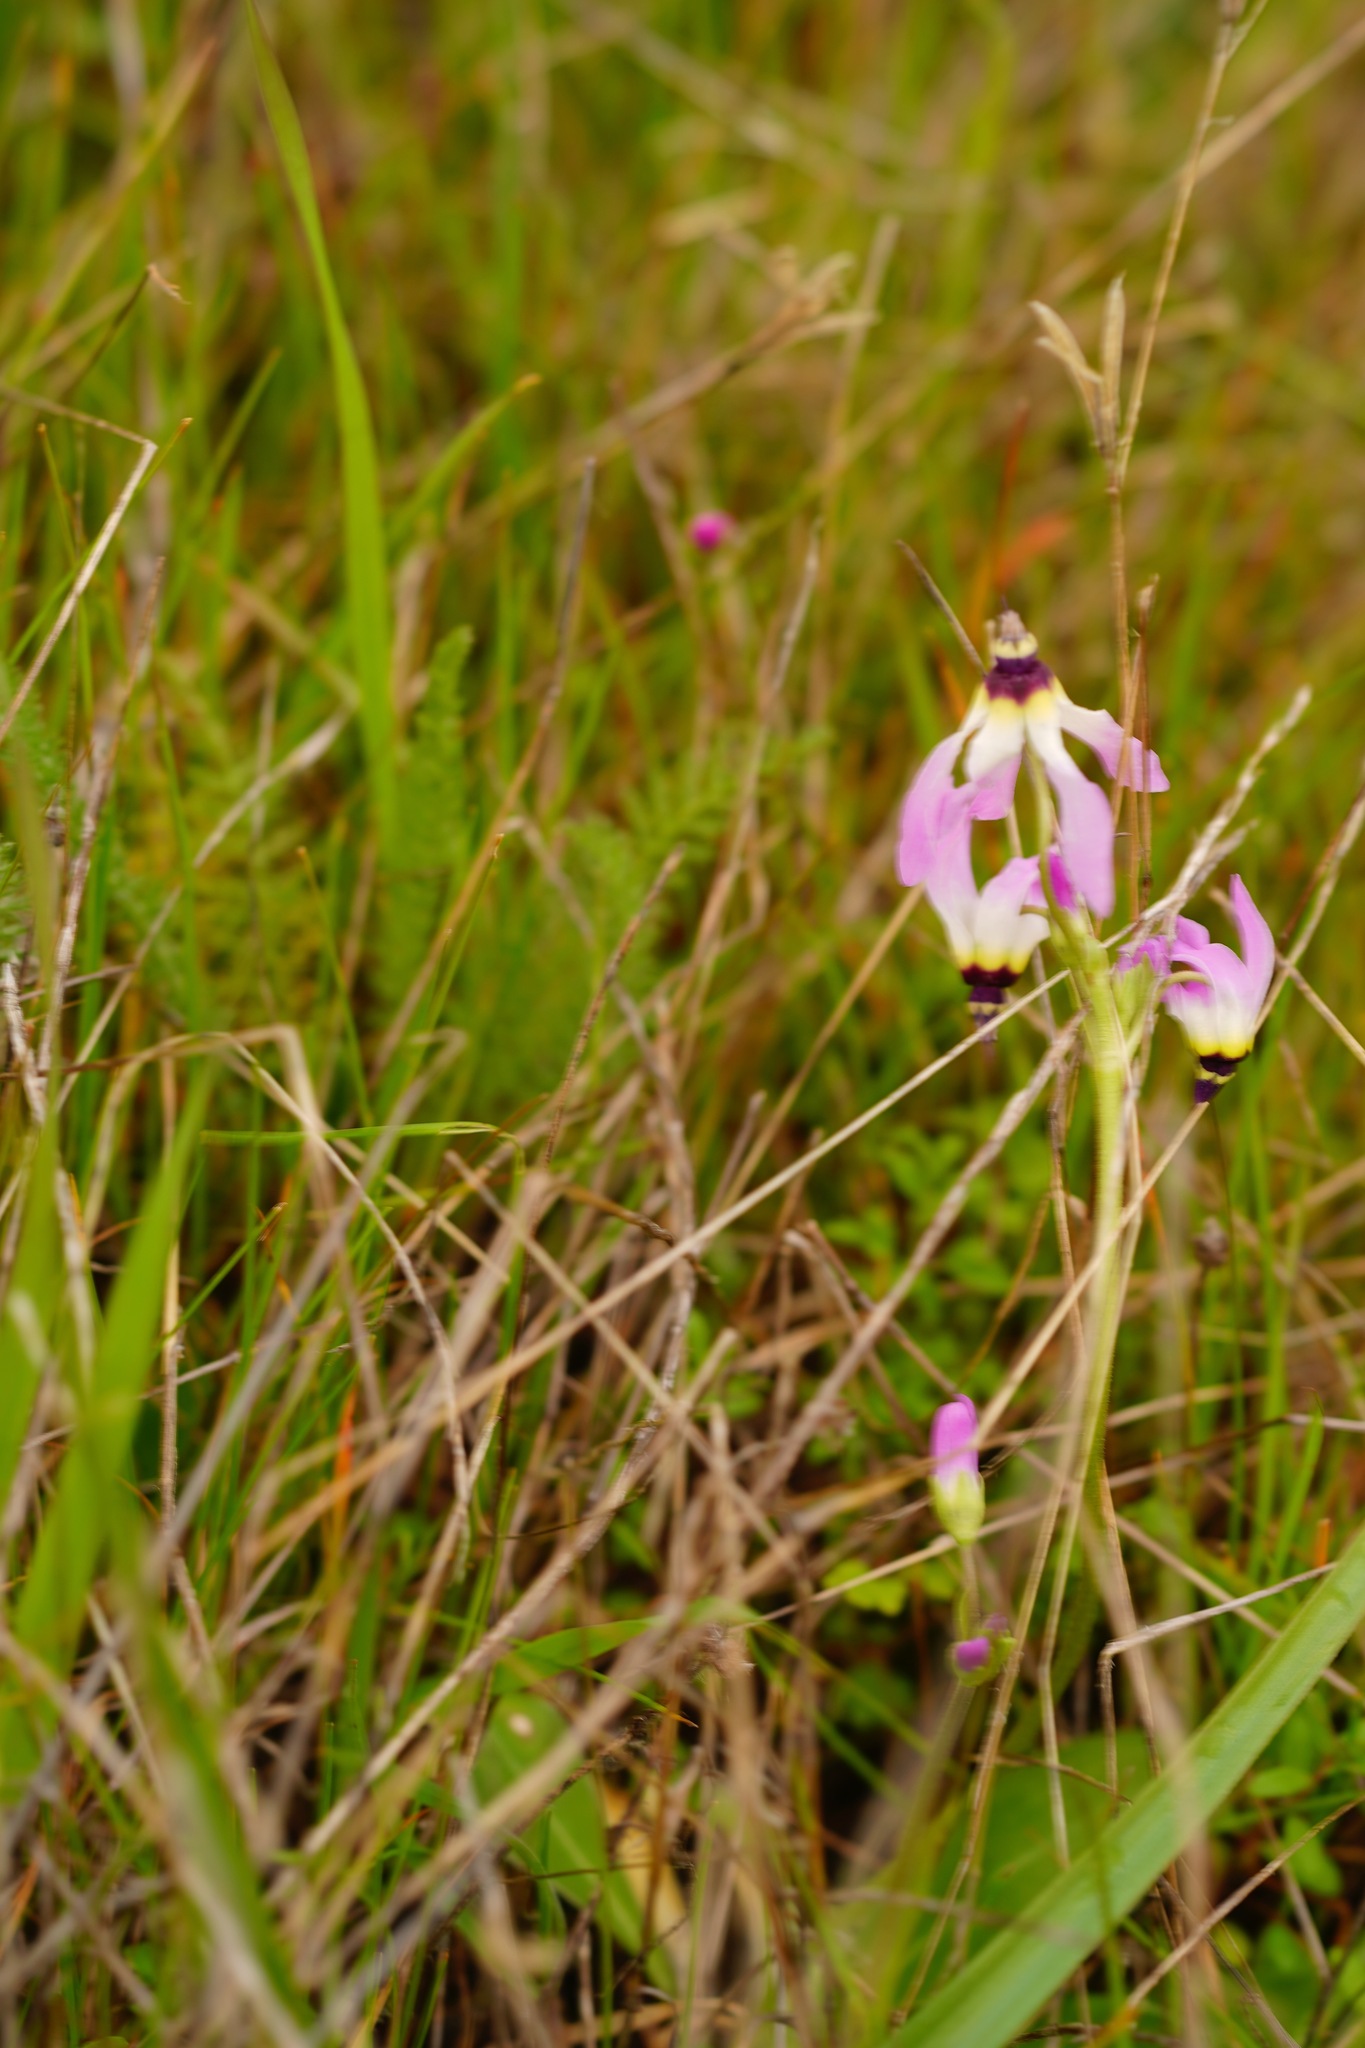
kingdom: Plantae
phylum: Tracheophyta
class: Magnoliopsida
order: Ericales
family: Primulaceae
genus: Dodecatheon
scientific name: Dodecatheon clevelandii
